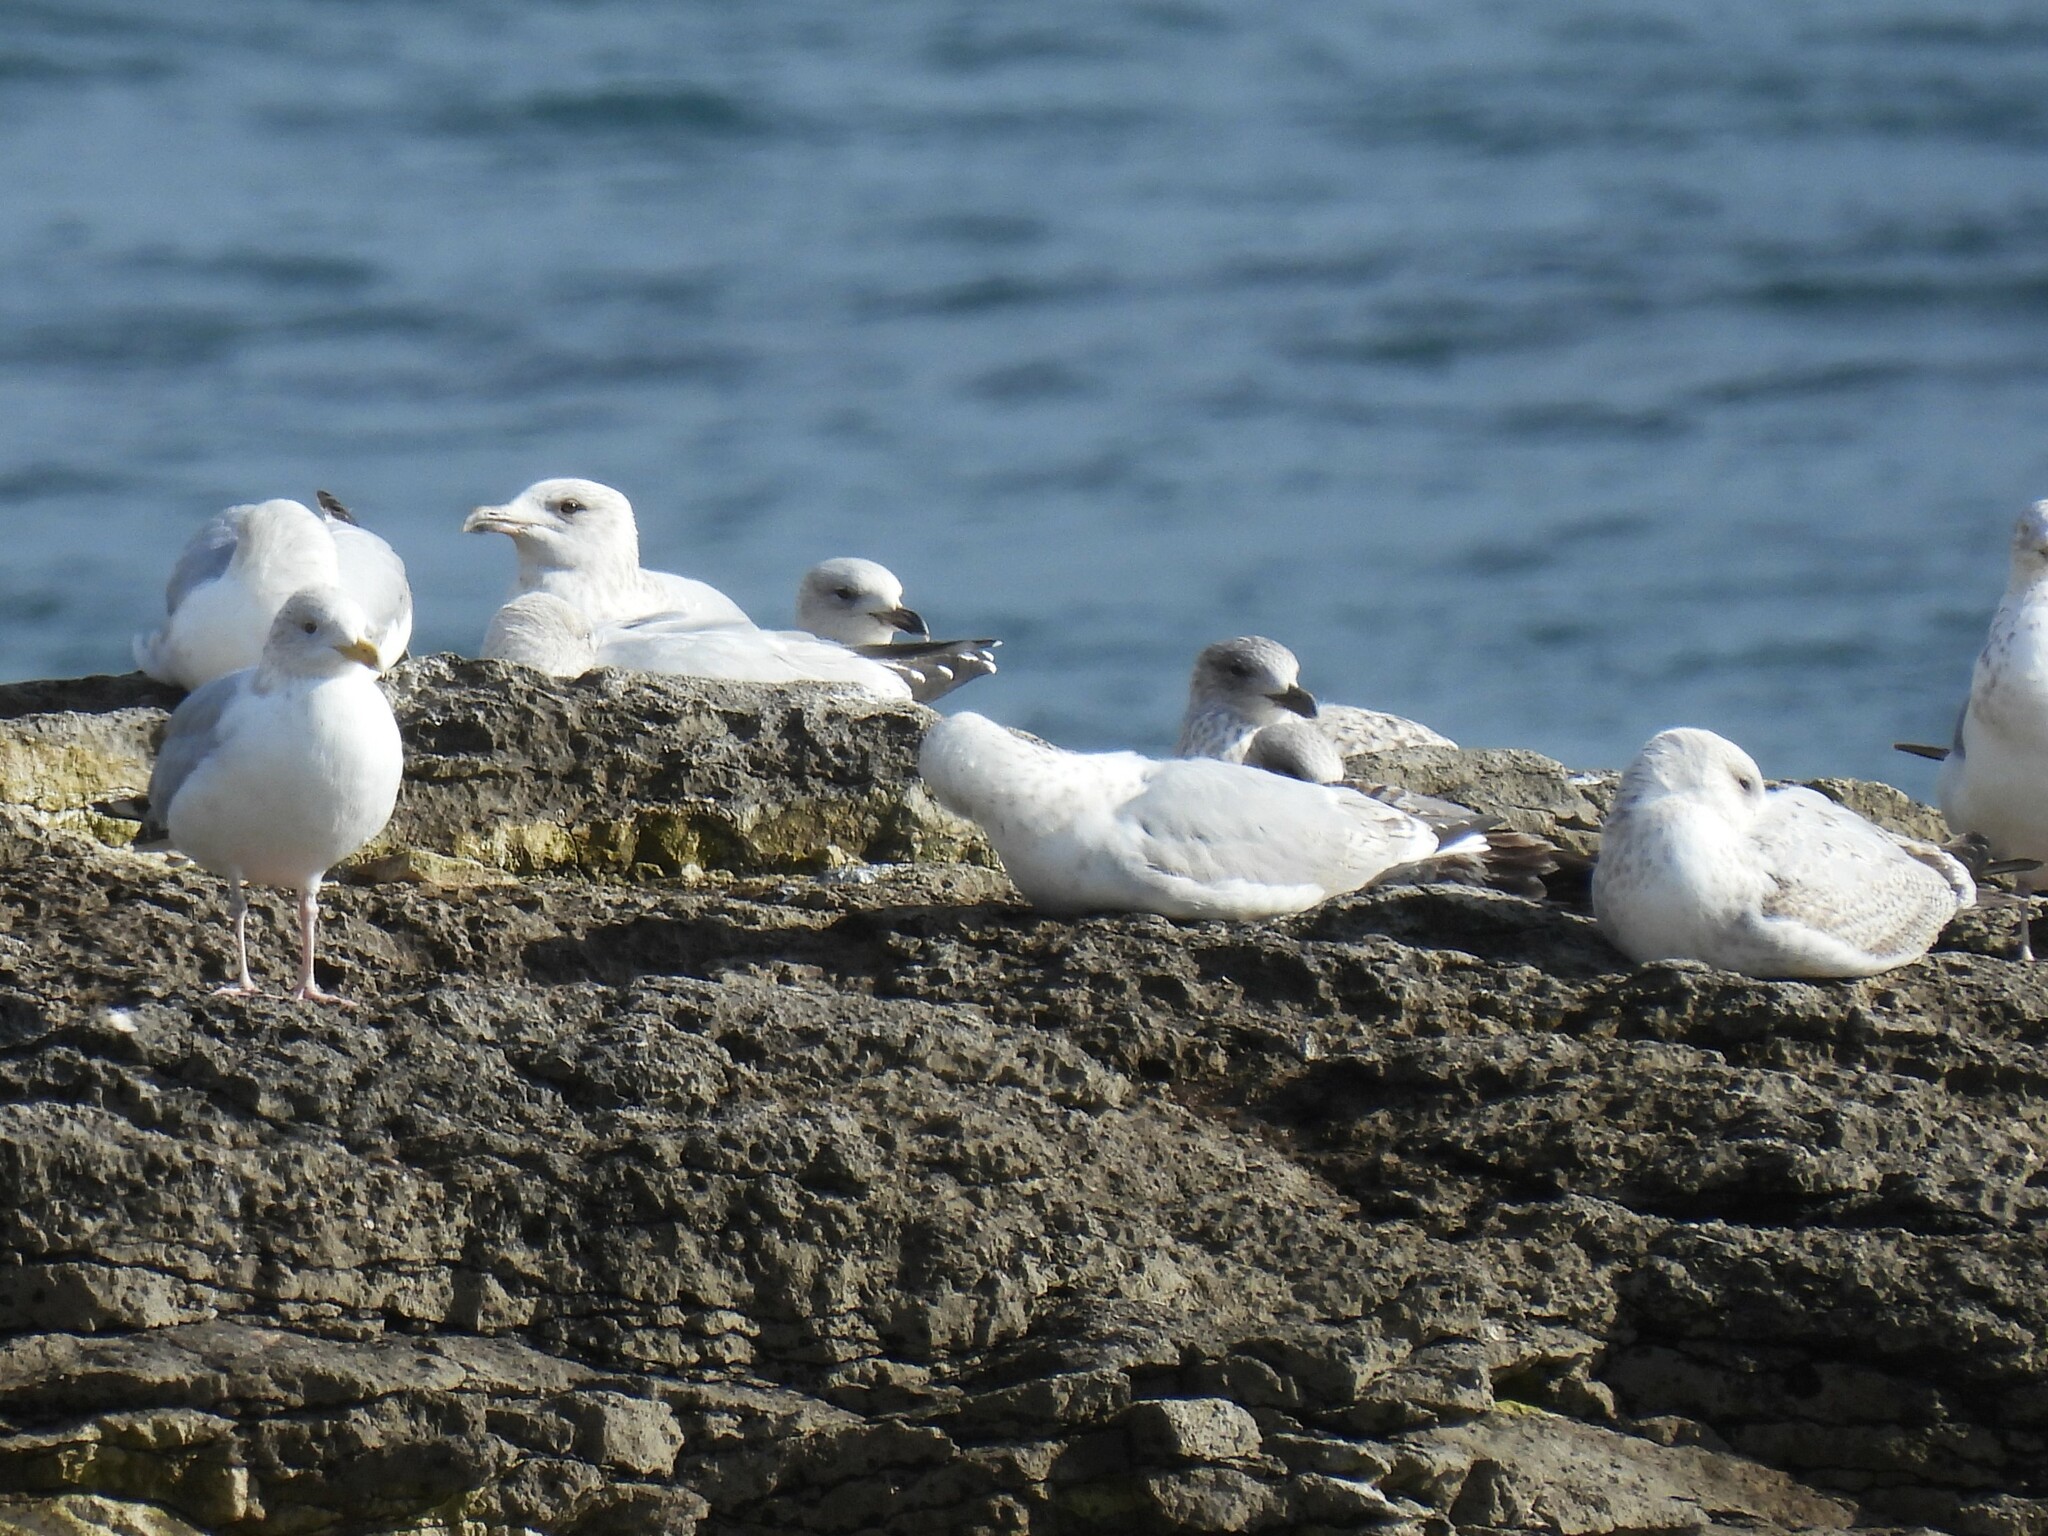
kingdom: Animalia
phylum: Chordata
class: Aves
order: Charadriiformes
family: Laridae
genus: Larus
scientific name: Larus argentatus
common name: Herring gull
